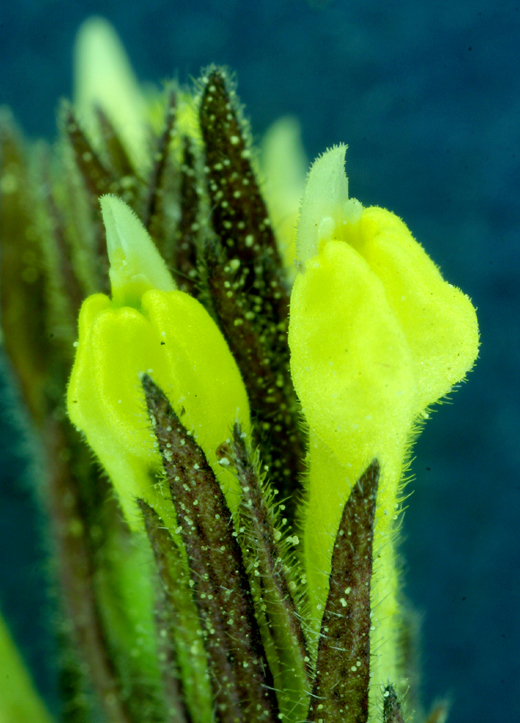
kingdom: Plantae
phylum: Tracheophyta
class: Magnoliopsida
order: Lamiales
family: Orobanchaceae
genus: Castilleja
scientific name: Castilleja tenuis
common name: Hairy indian paintbrush
